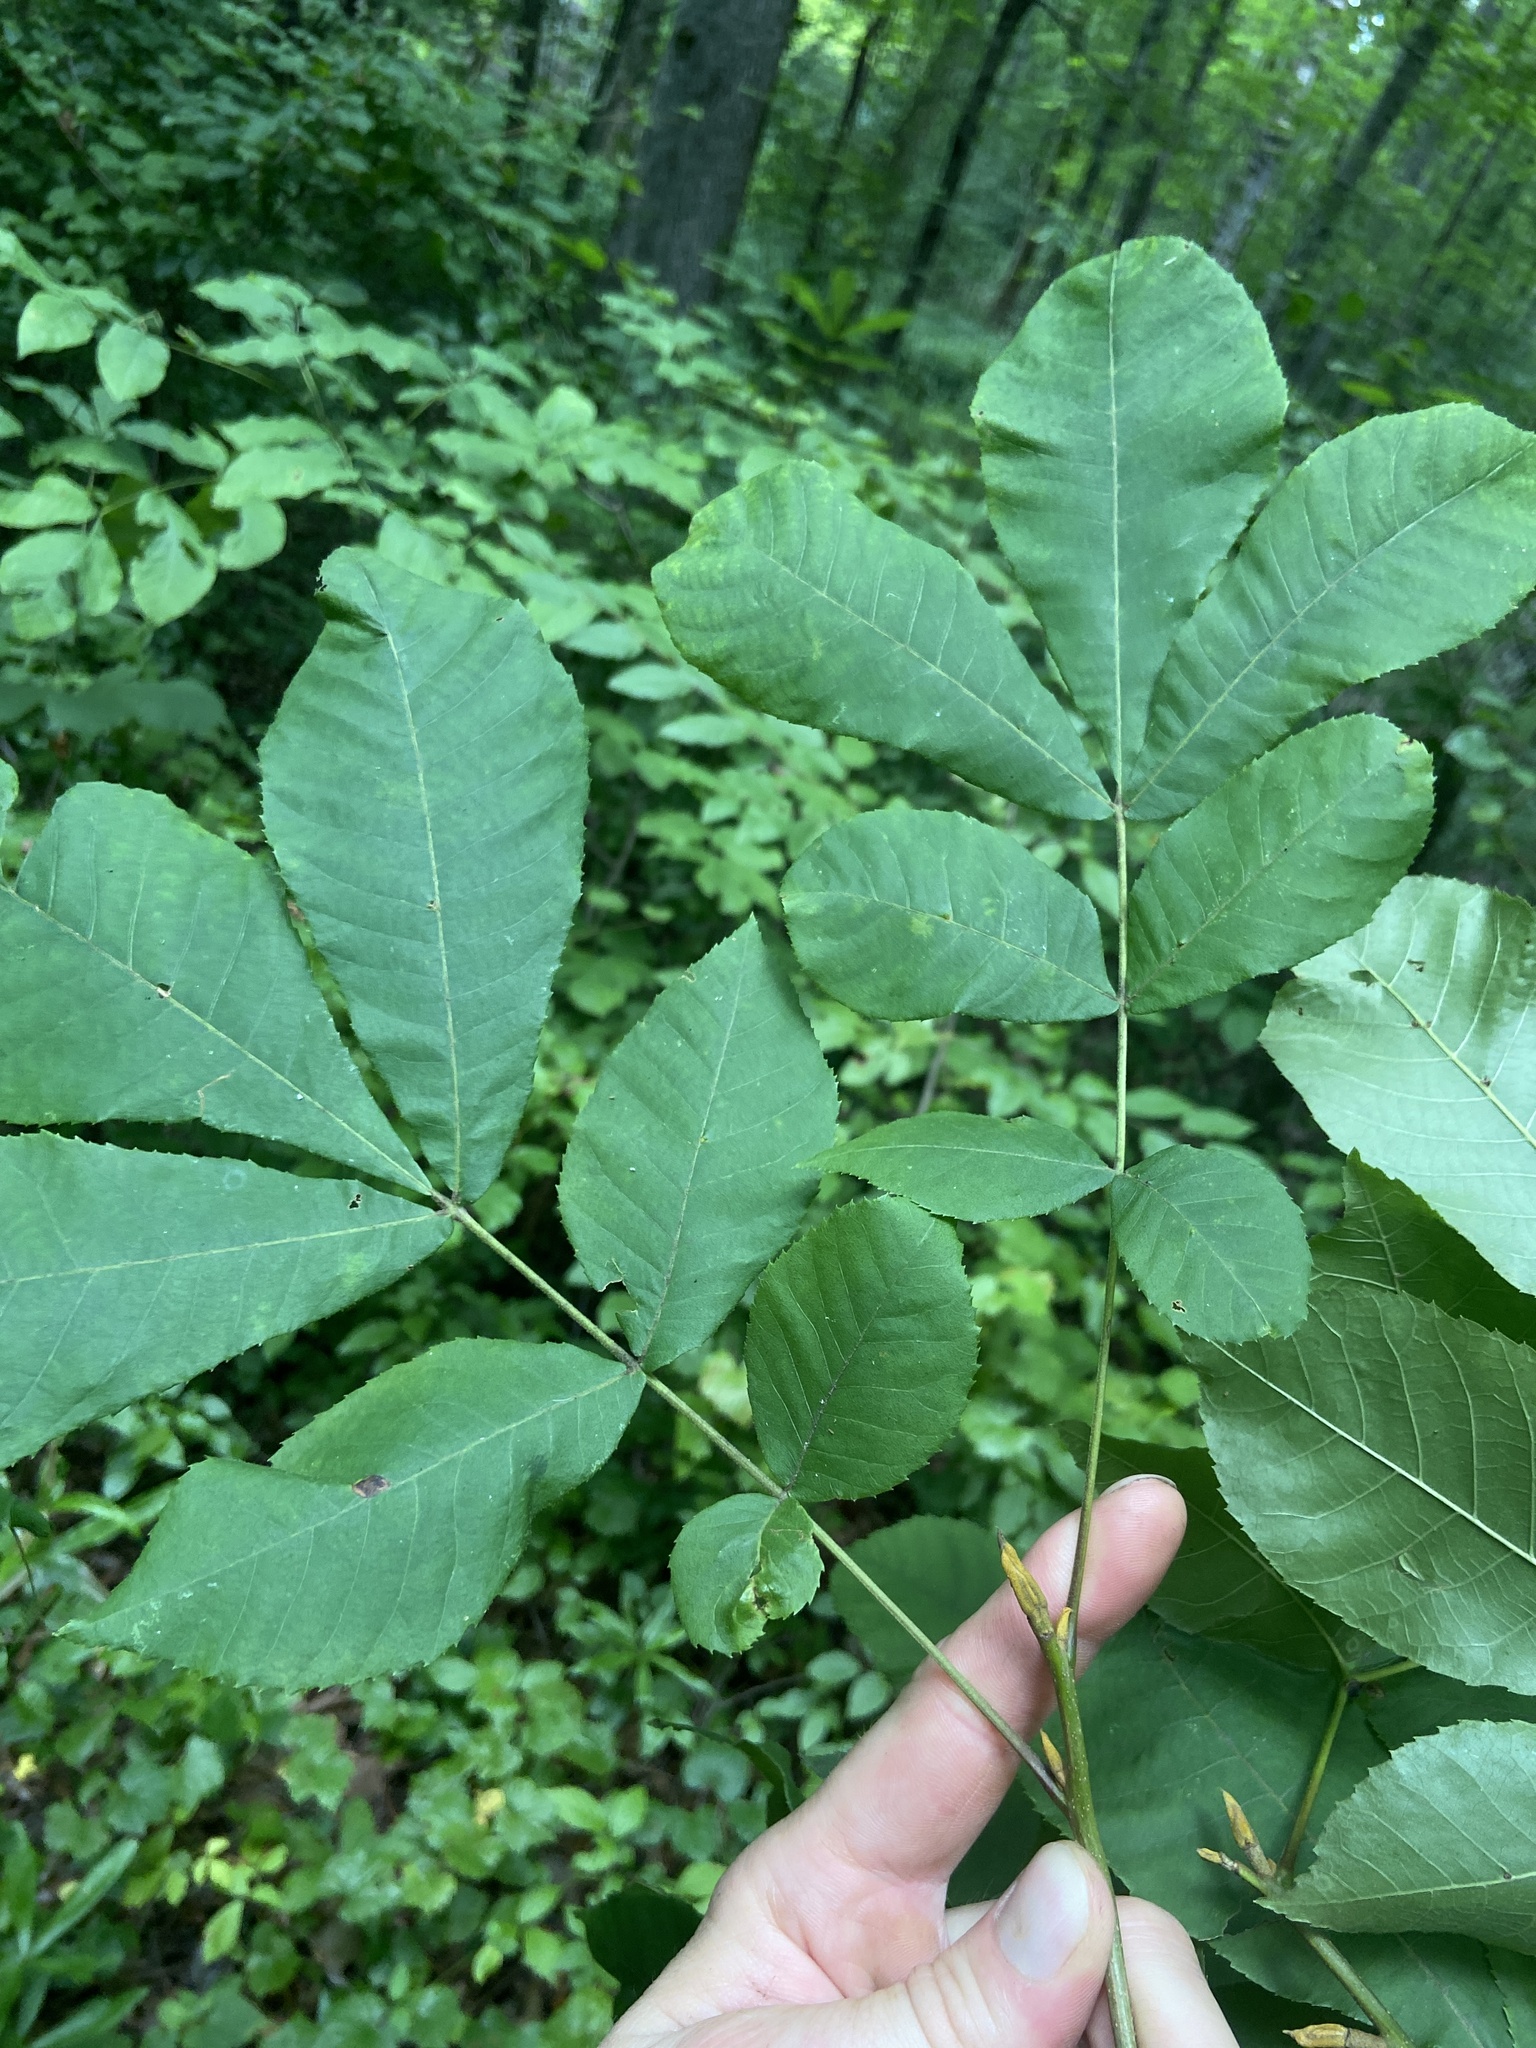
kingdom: Plantae
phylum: Tracheophyta
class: Magnoliopsida
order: Fagales
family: Juglandaceae
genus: Carya
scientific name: Carya cordiformis
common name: Bitternut hickory
